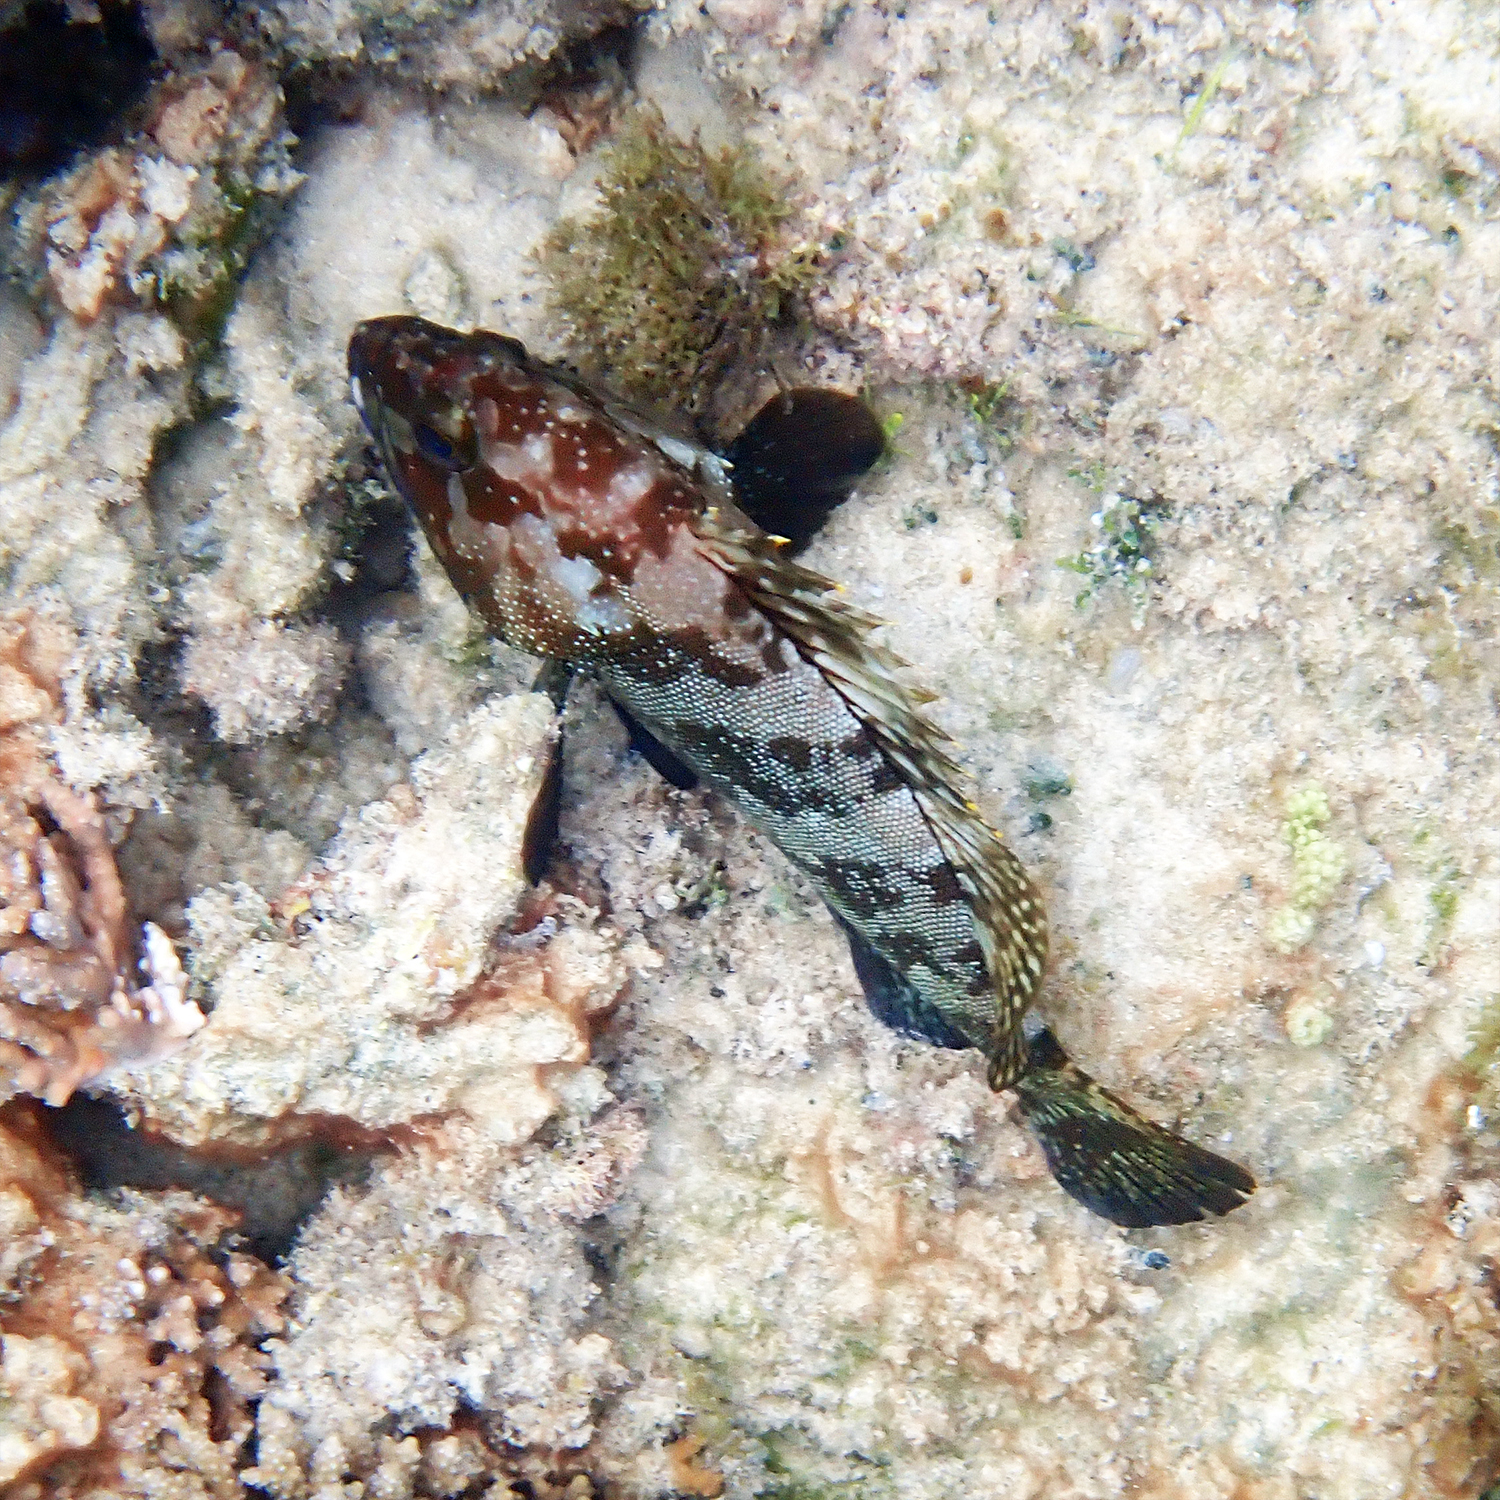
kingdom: Animalia
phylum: Chordata
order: Perciformes
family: Serranidae
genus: Epinephelus
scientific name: Epinephelus rivulatus
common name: Halfmoon grouper
